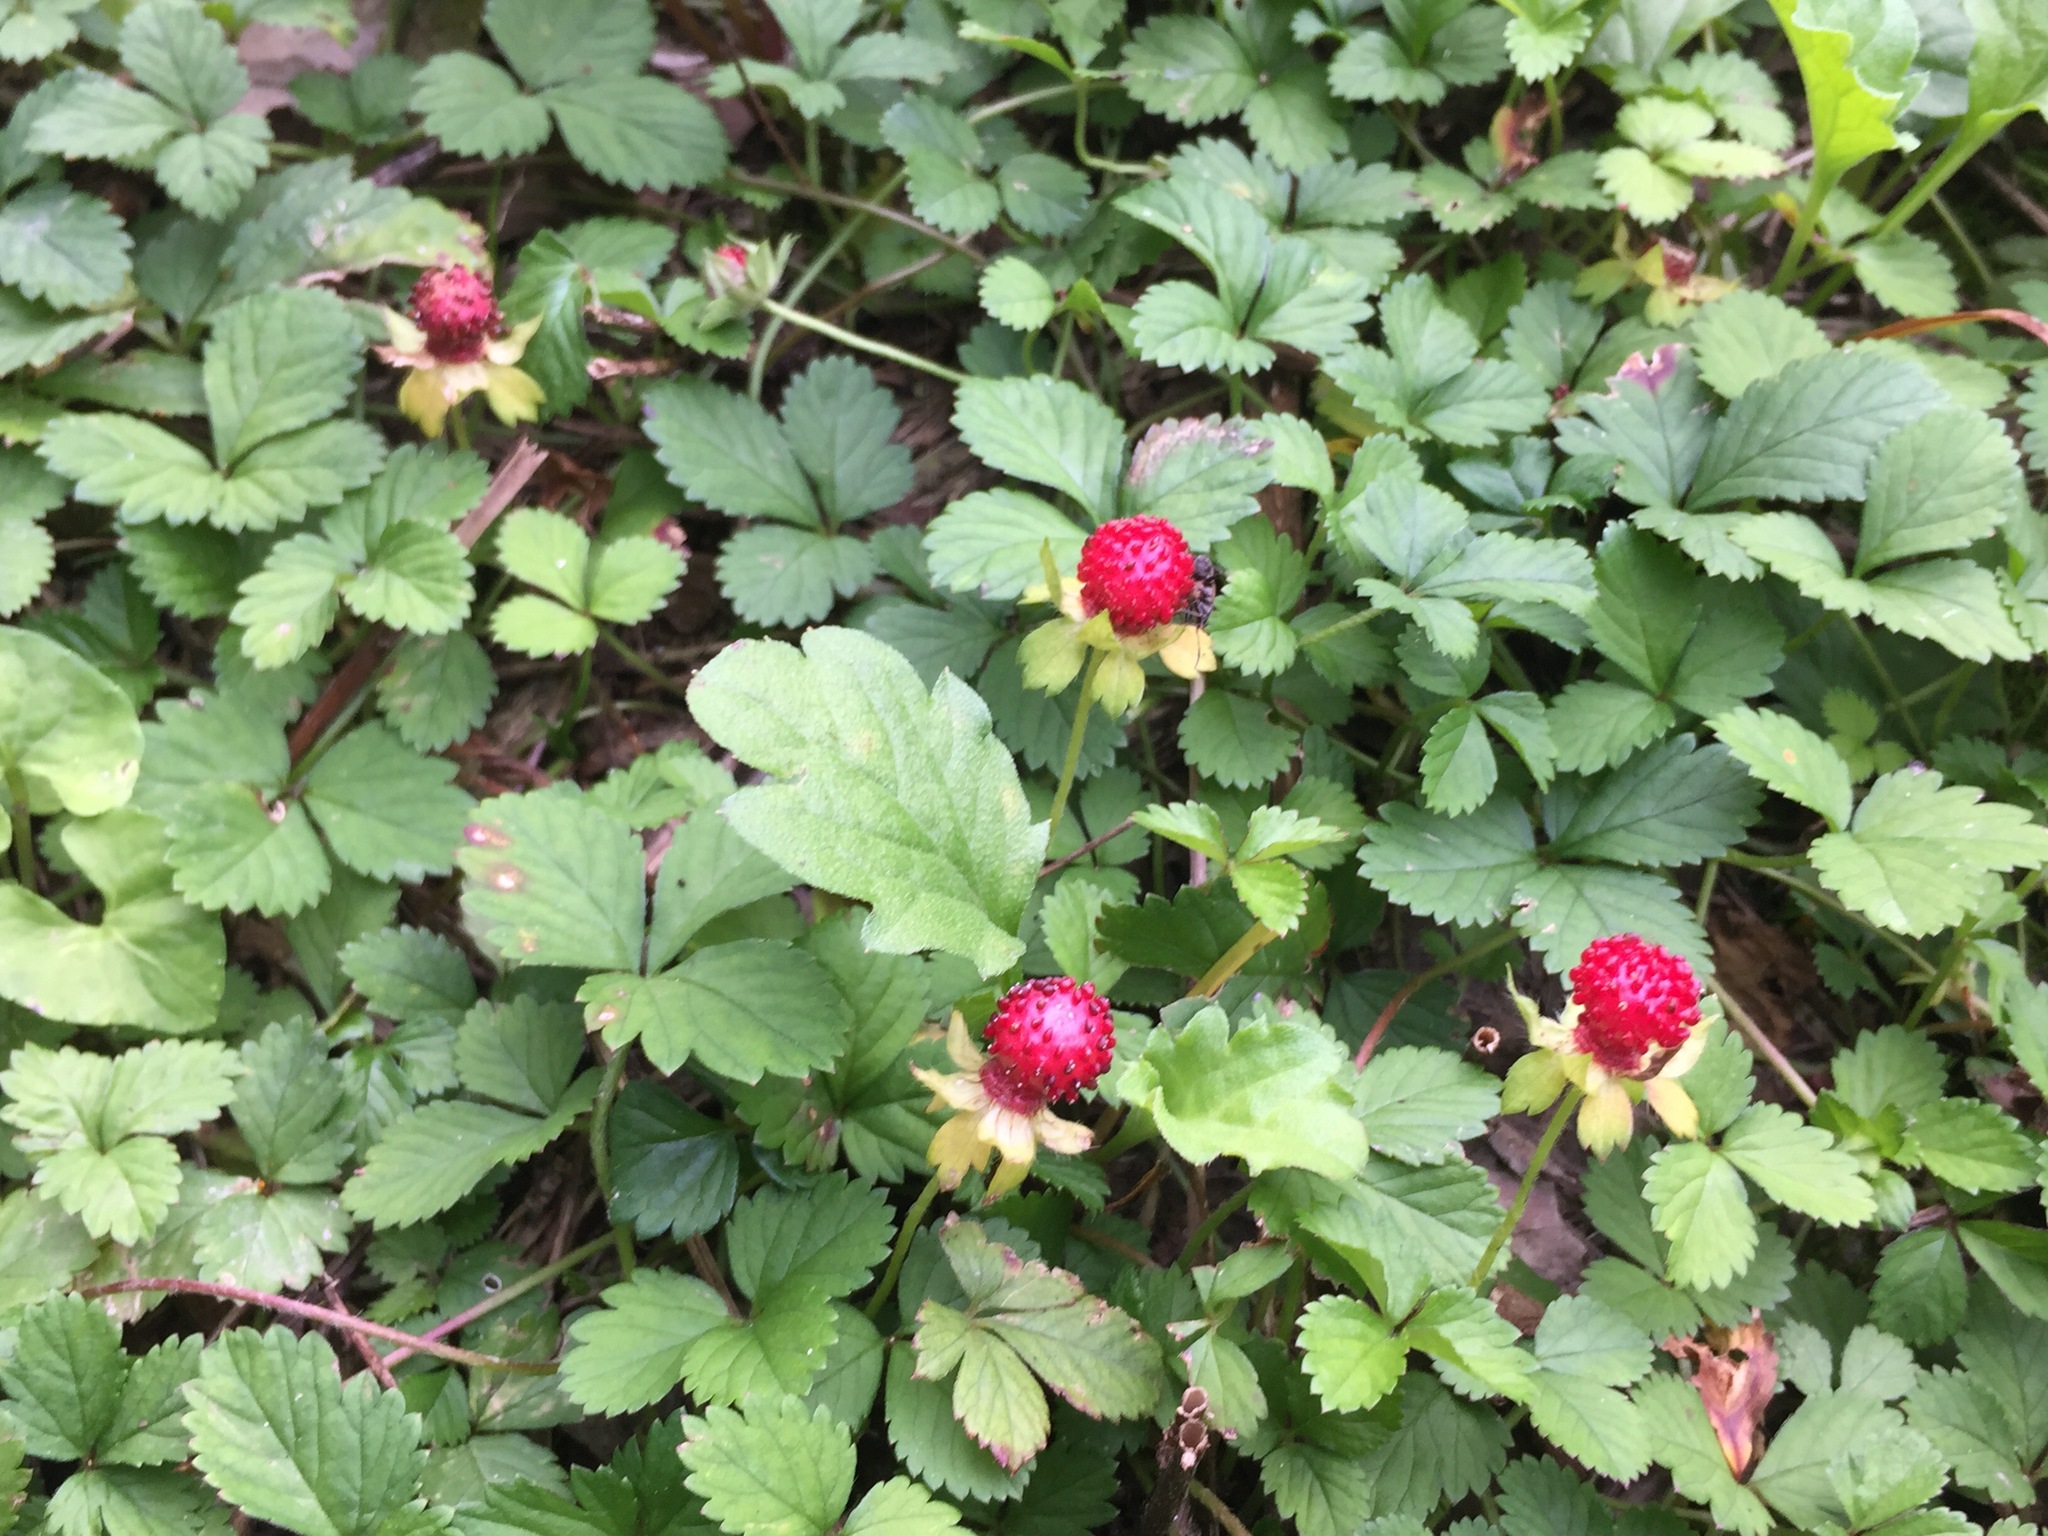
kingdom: Plantae
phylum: Tracheophyta
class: Magnoliopsida
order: Rosales
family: Rosaceae
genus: Potentilla
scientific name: Potentilla indica
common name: Yellow-flowered strawberry
